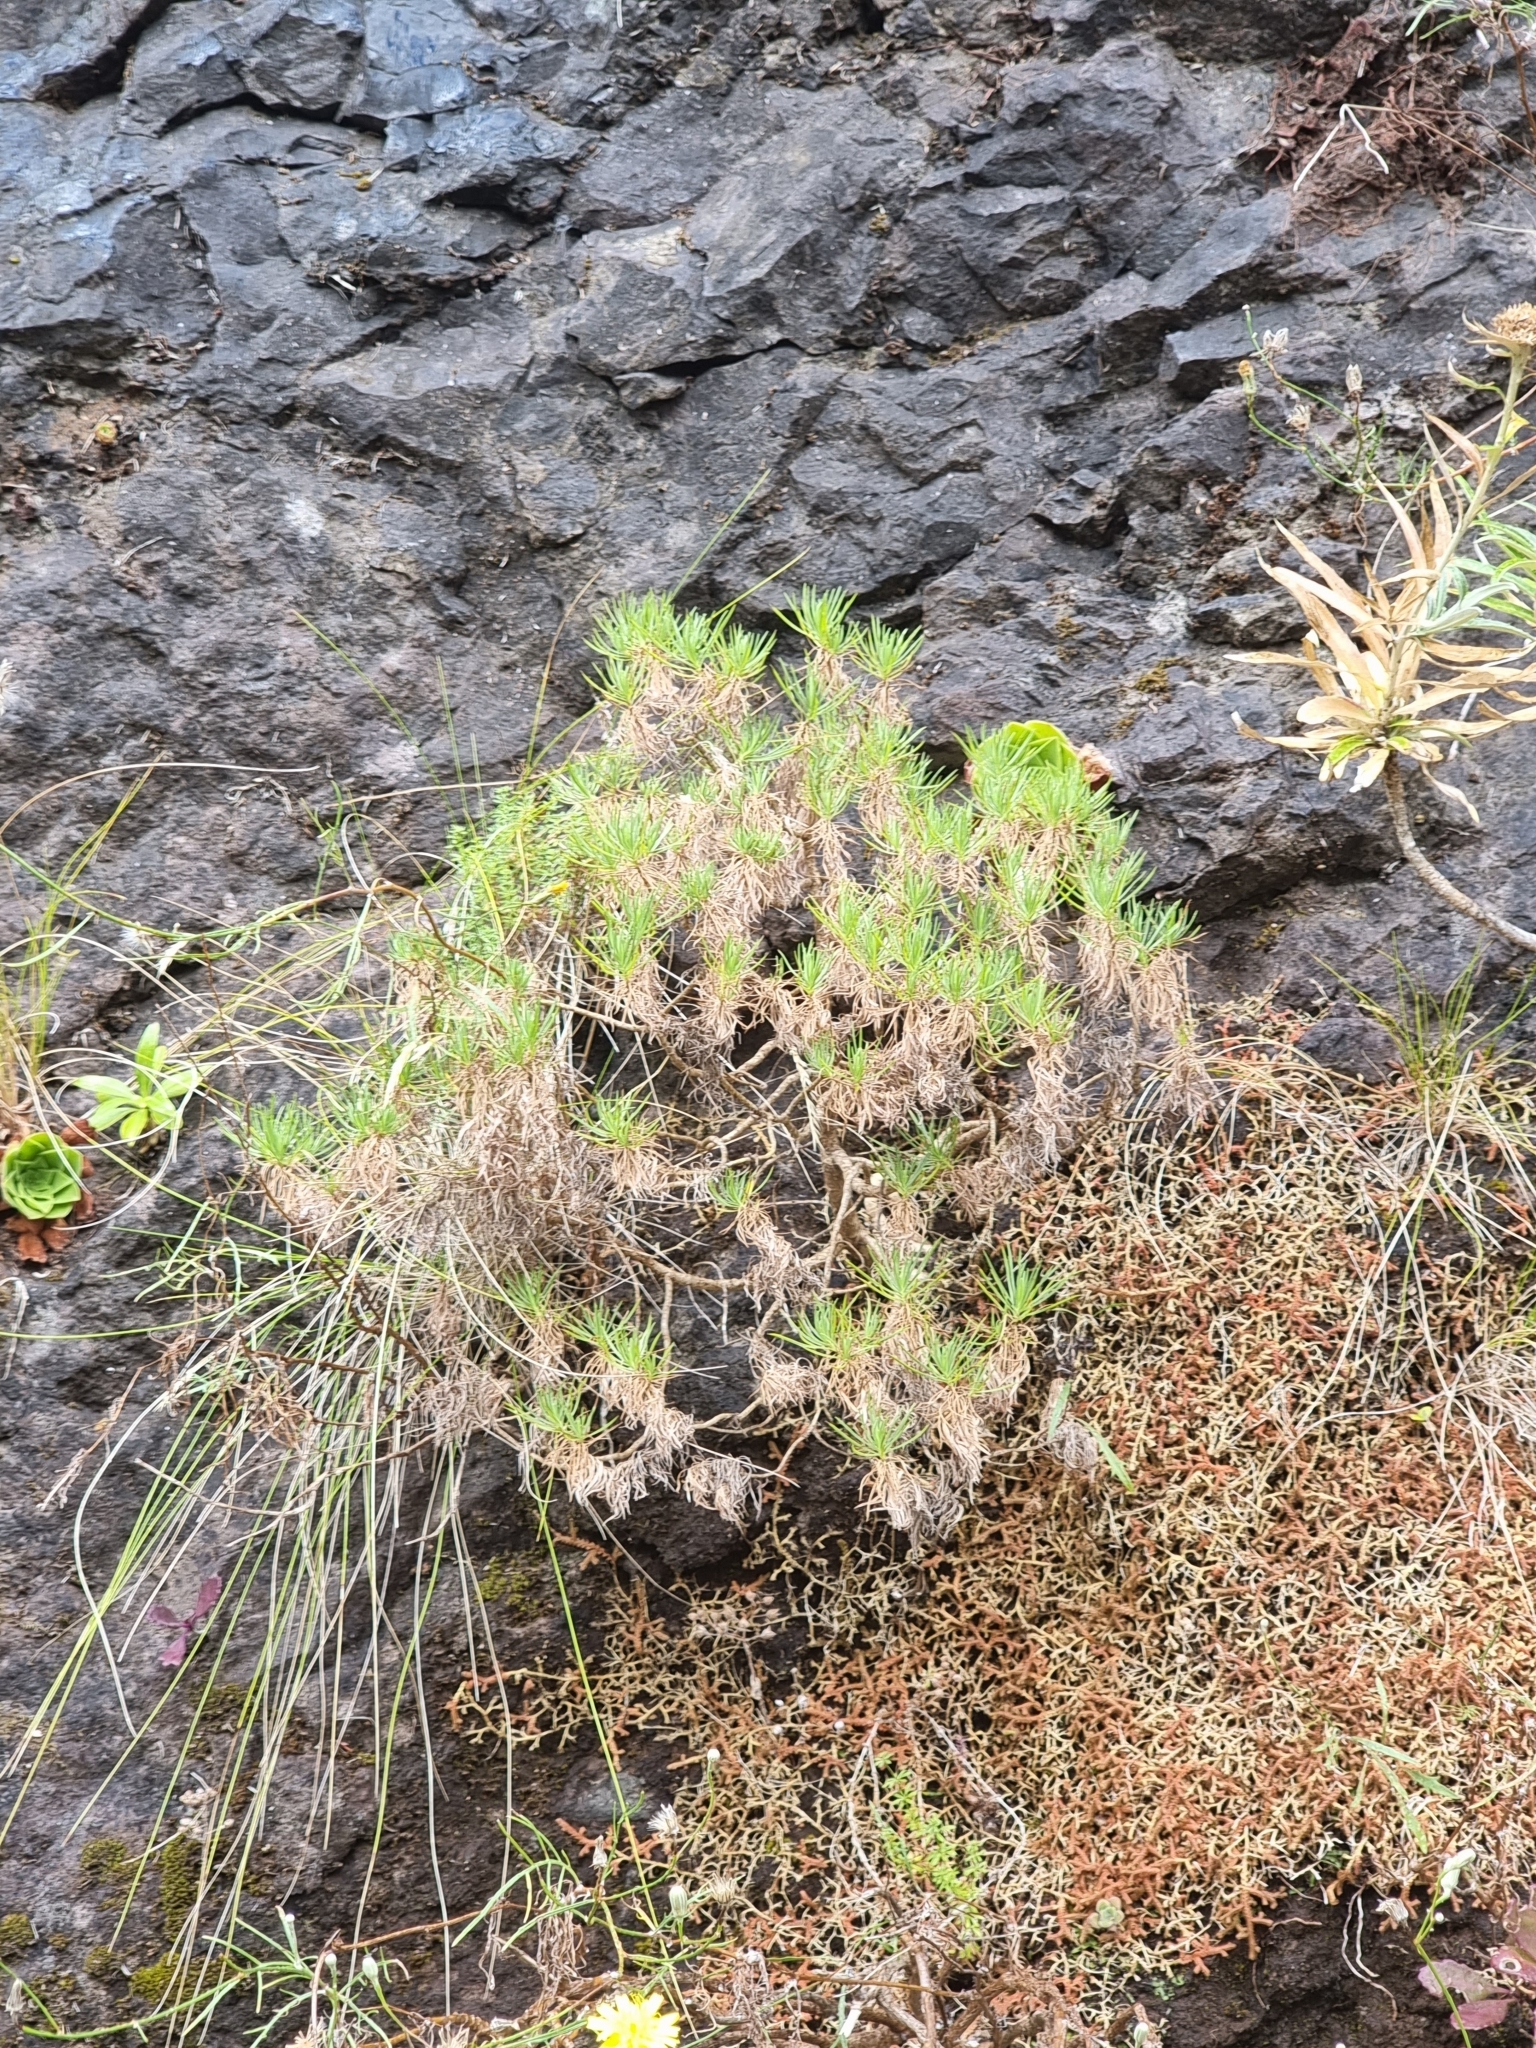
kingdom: Plantae
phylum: Tracheophyta
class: Magnoliopsida
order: Lamiales
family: Plantaginaceae
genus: Plantago
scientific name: Plantago arborescens
